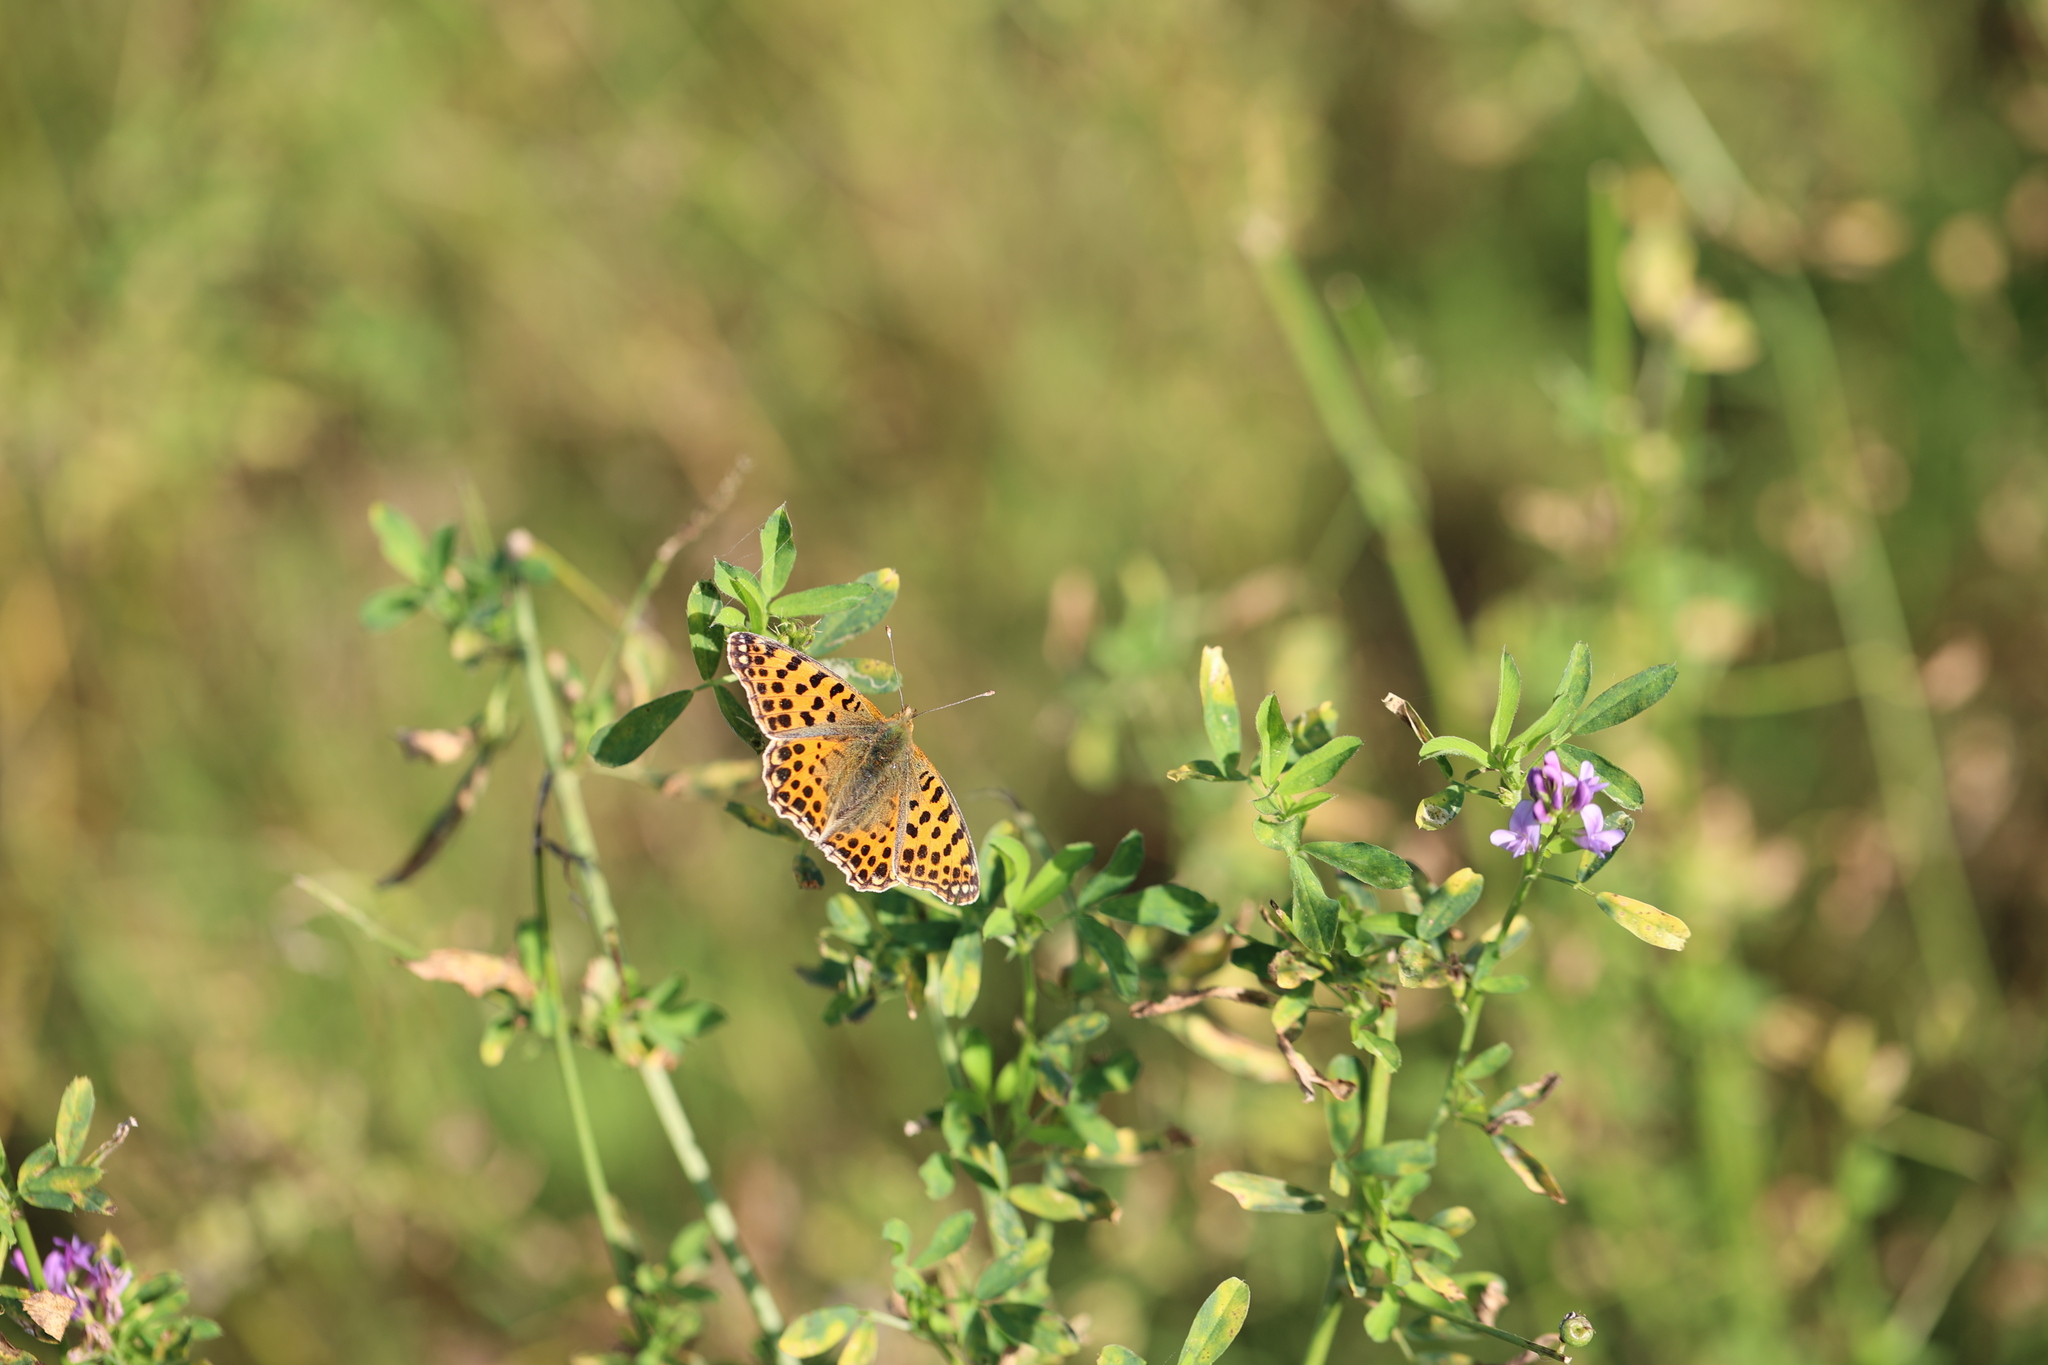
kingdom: Animalia
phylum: Arthropoda
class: Insecta
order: Lepidoptera
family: Nymphalidae
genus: Issoria
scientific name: Issoria lathonia
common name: Queen of spain fritillary
